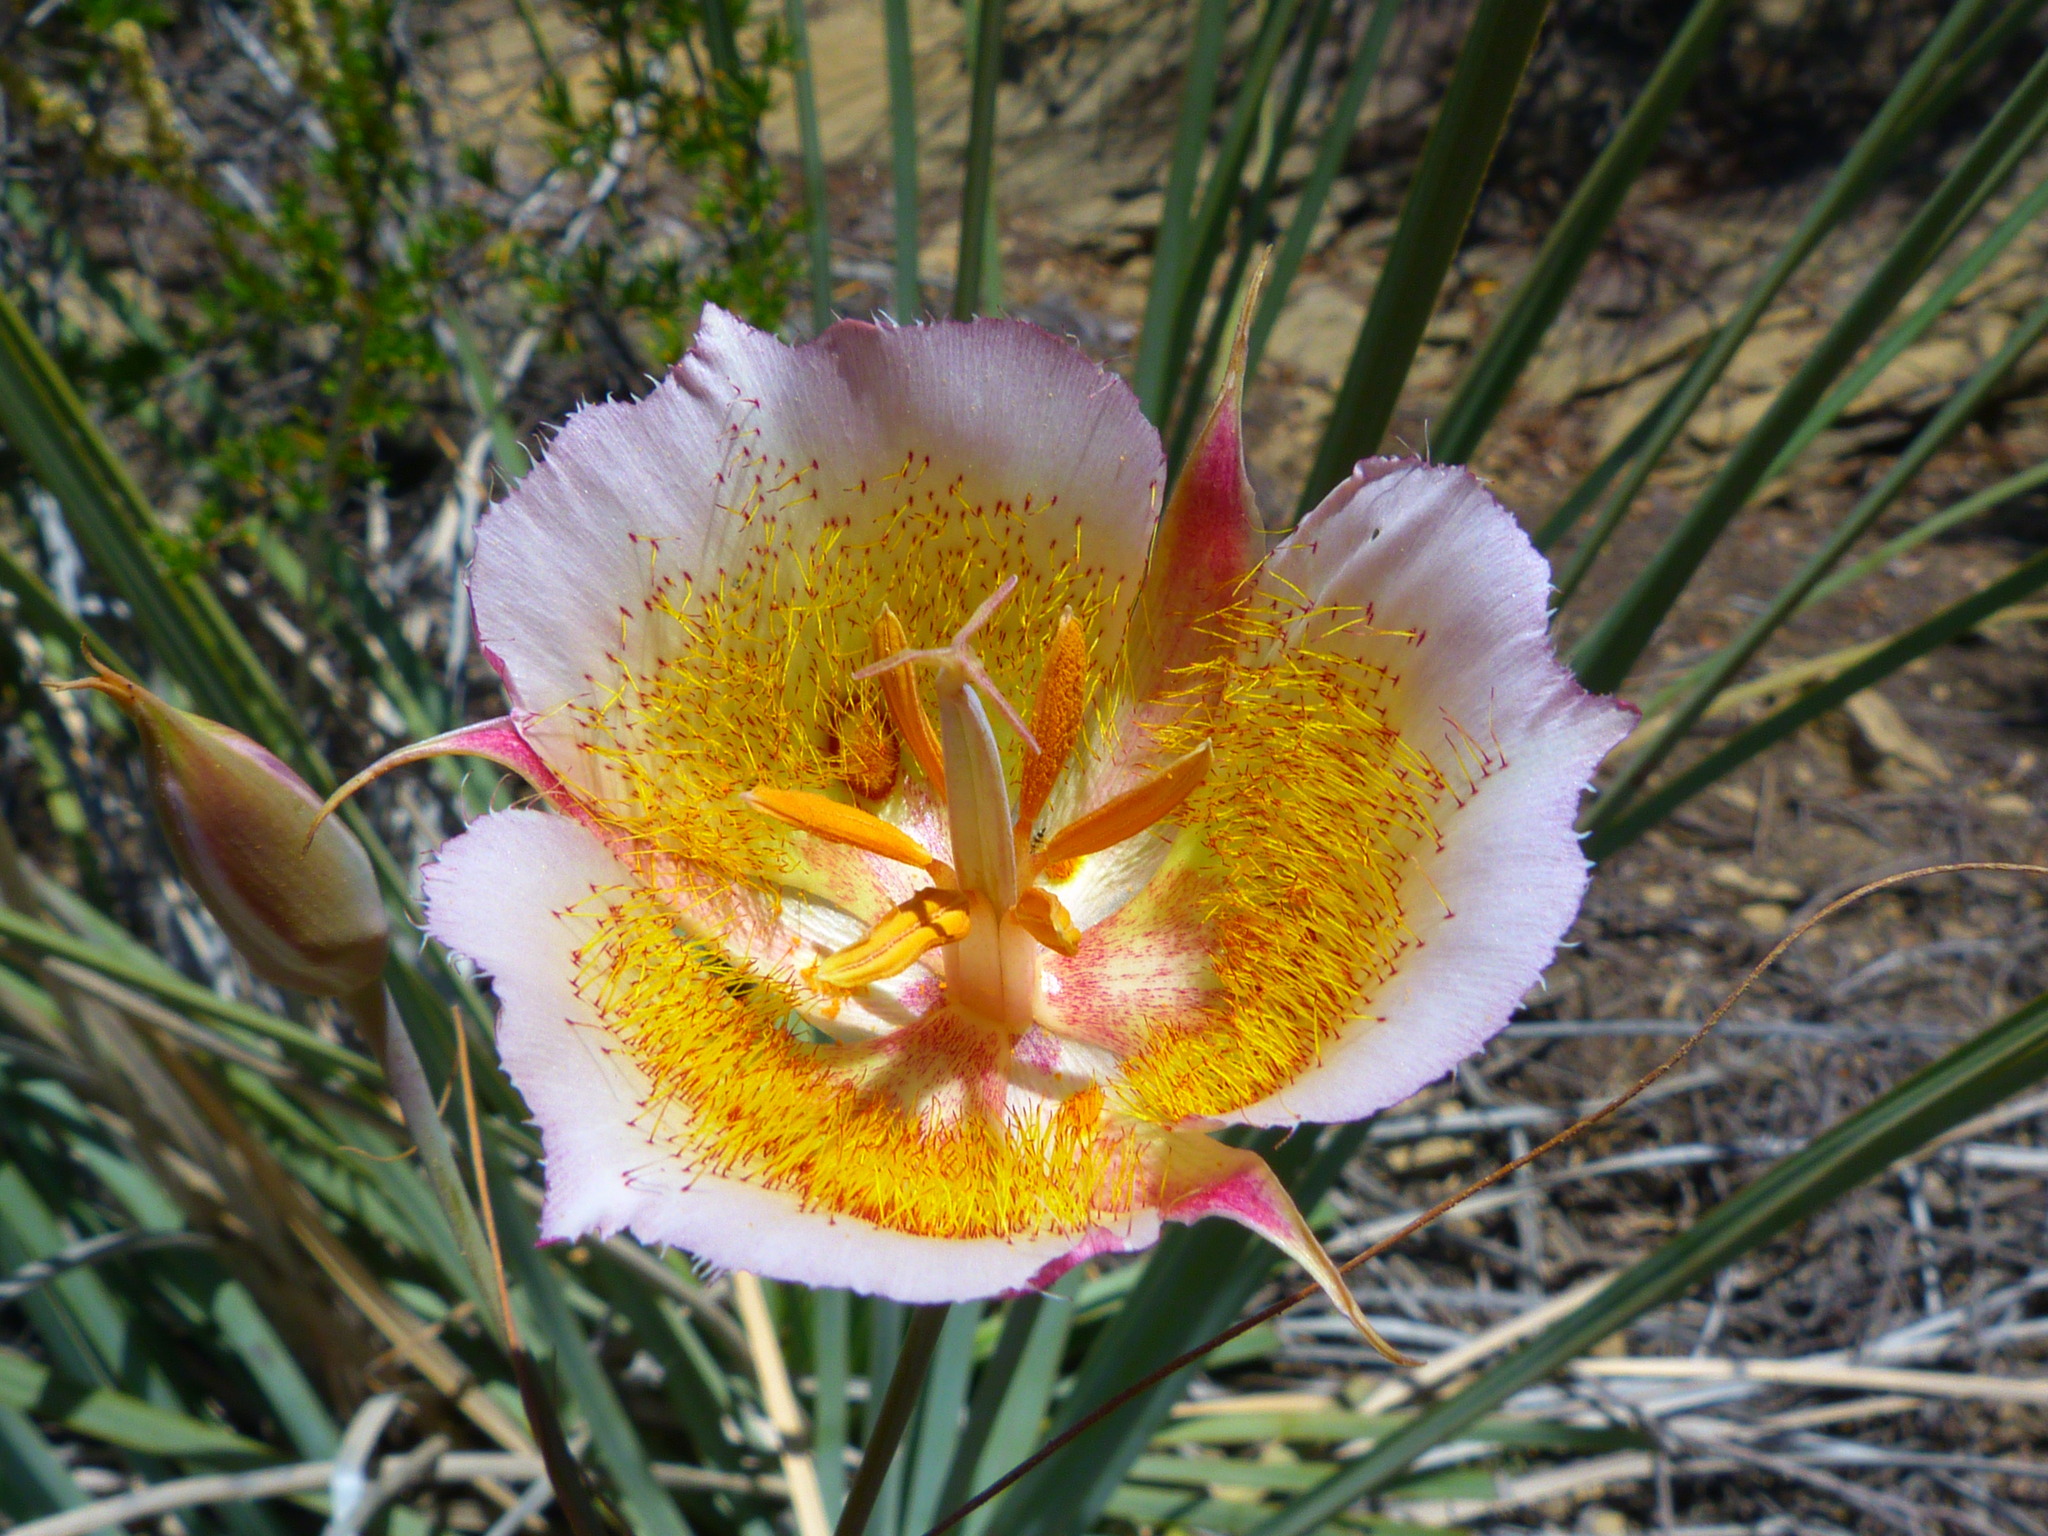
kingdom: Plantae
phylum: Tracheophyta
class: Liliopsida
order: Liliales
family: Liliaceae
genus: Calochortus
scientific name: Calochortus plummerae
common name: Plummer's mariposa-lily
